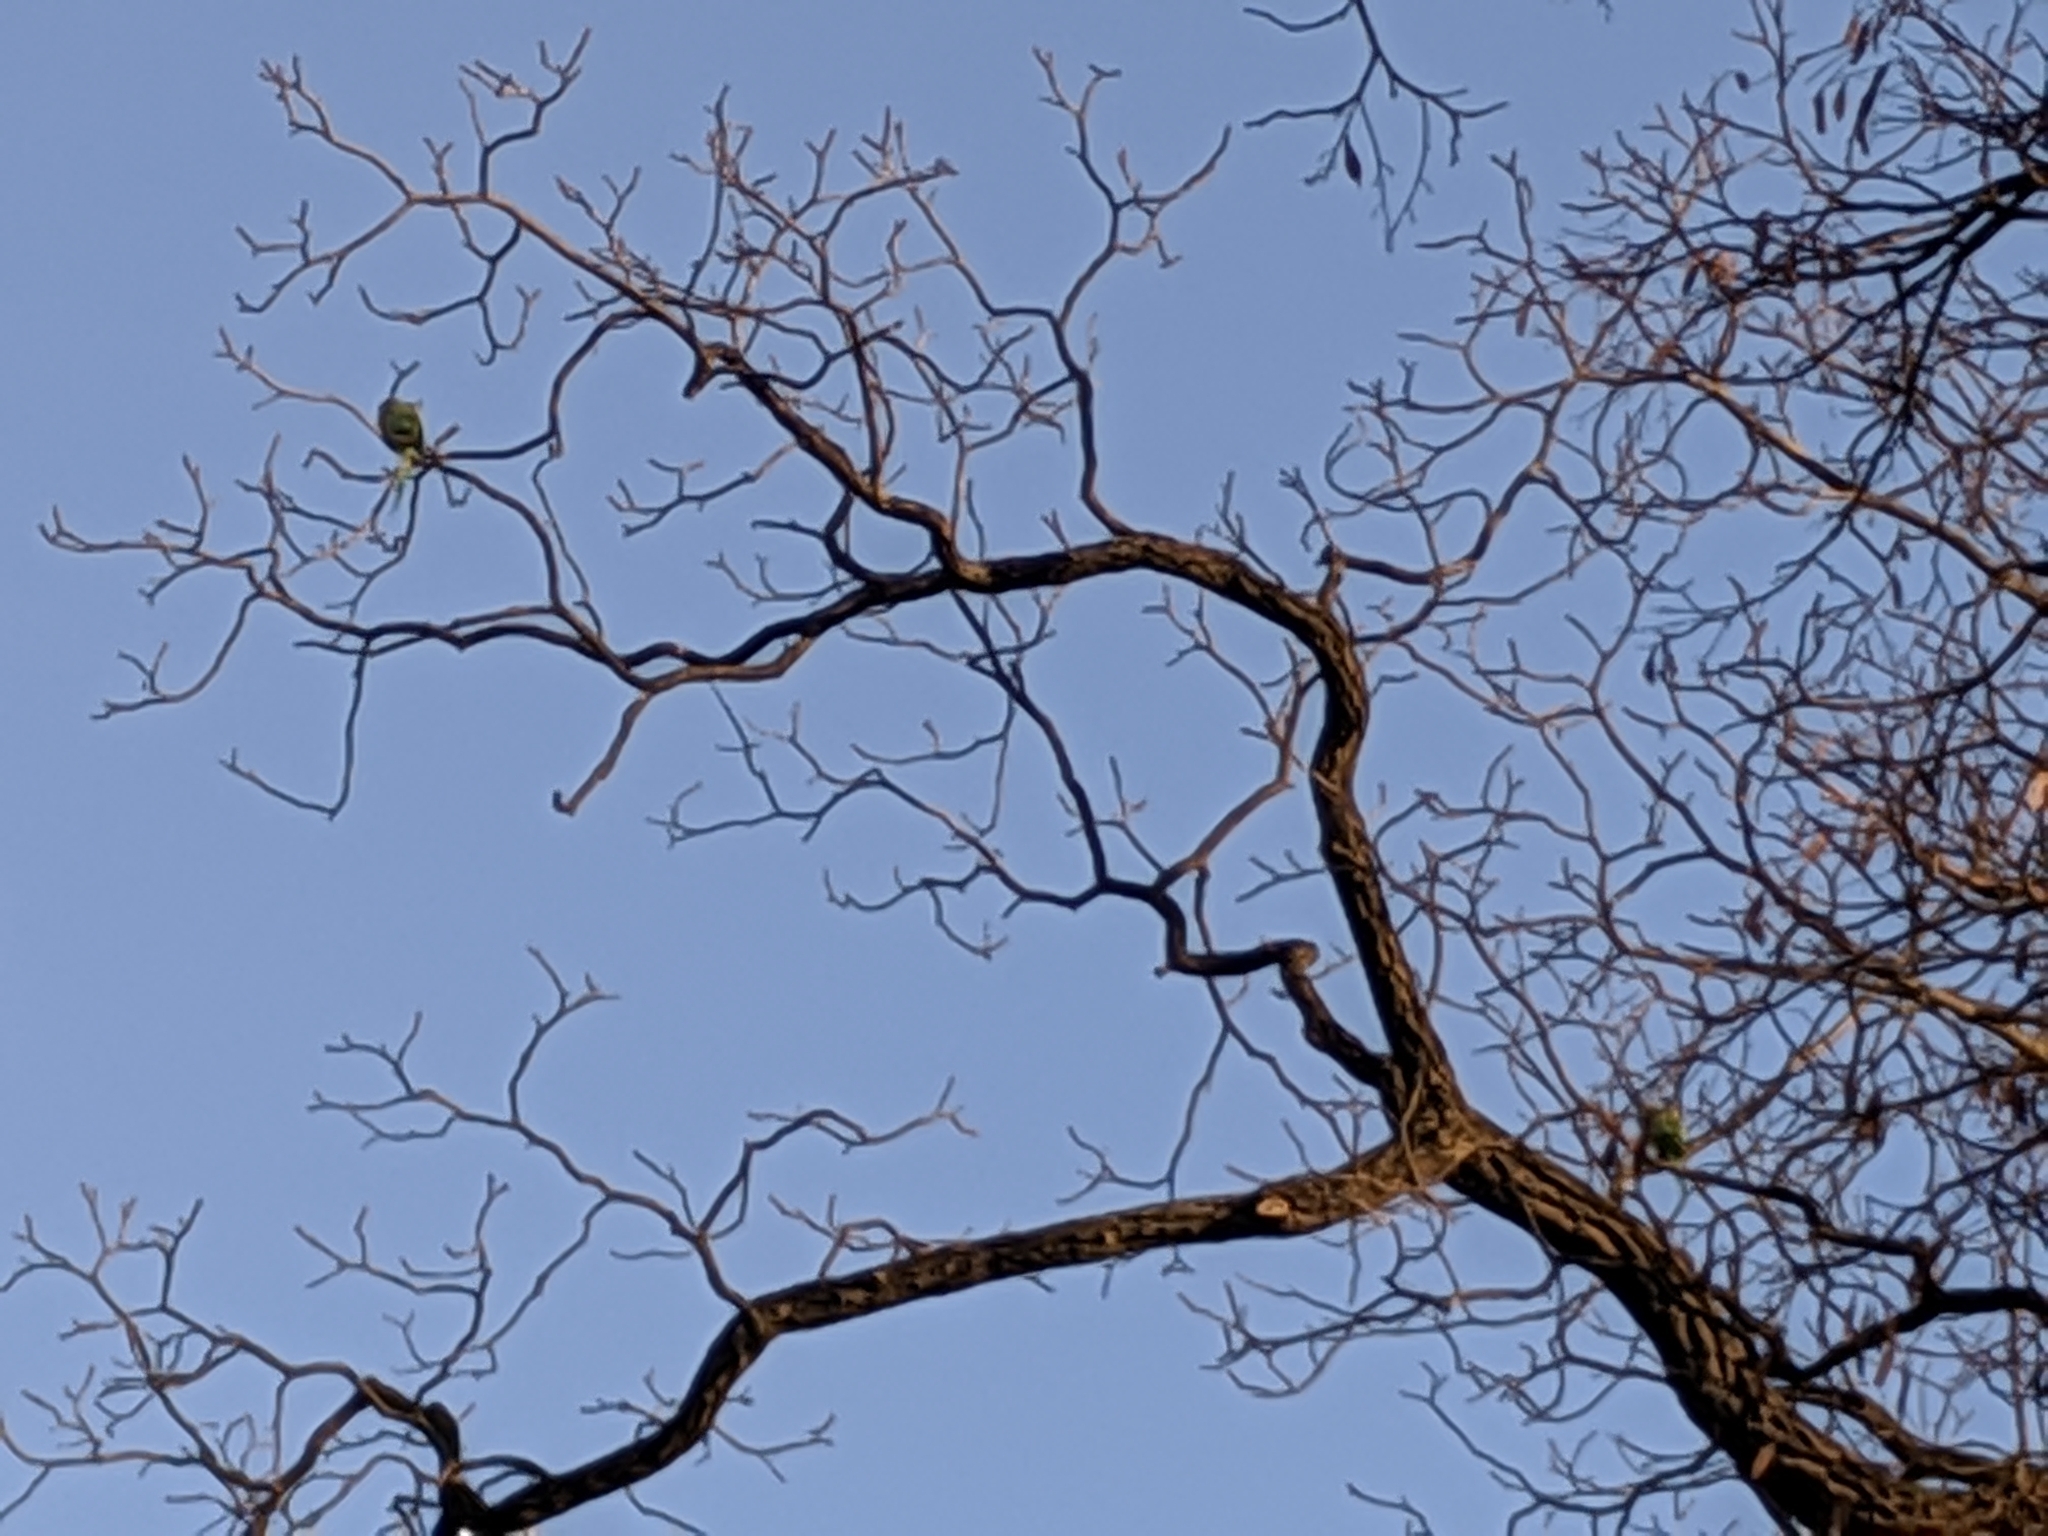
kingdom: Animalia
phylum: Chordata
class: Aves
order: Psittaciformes
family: Psittacidae
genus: Psittacula
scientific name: Psittacula krameri
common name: Rose-ringed parakeet
